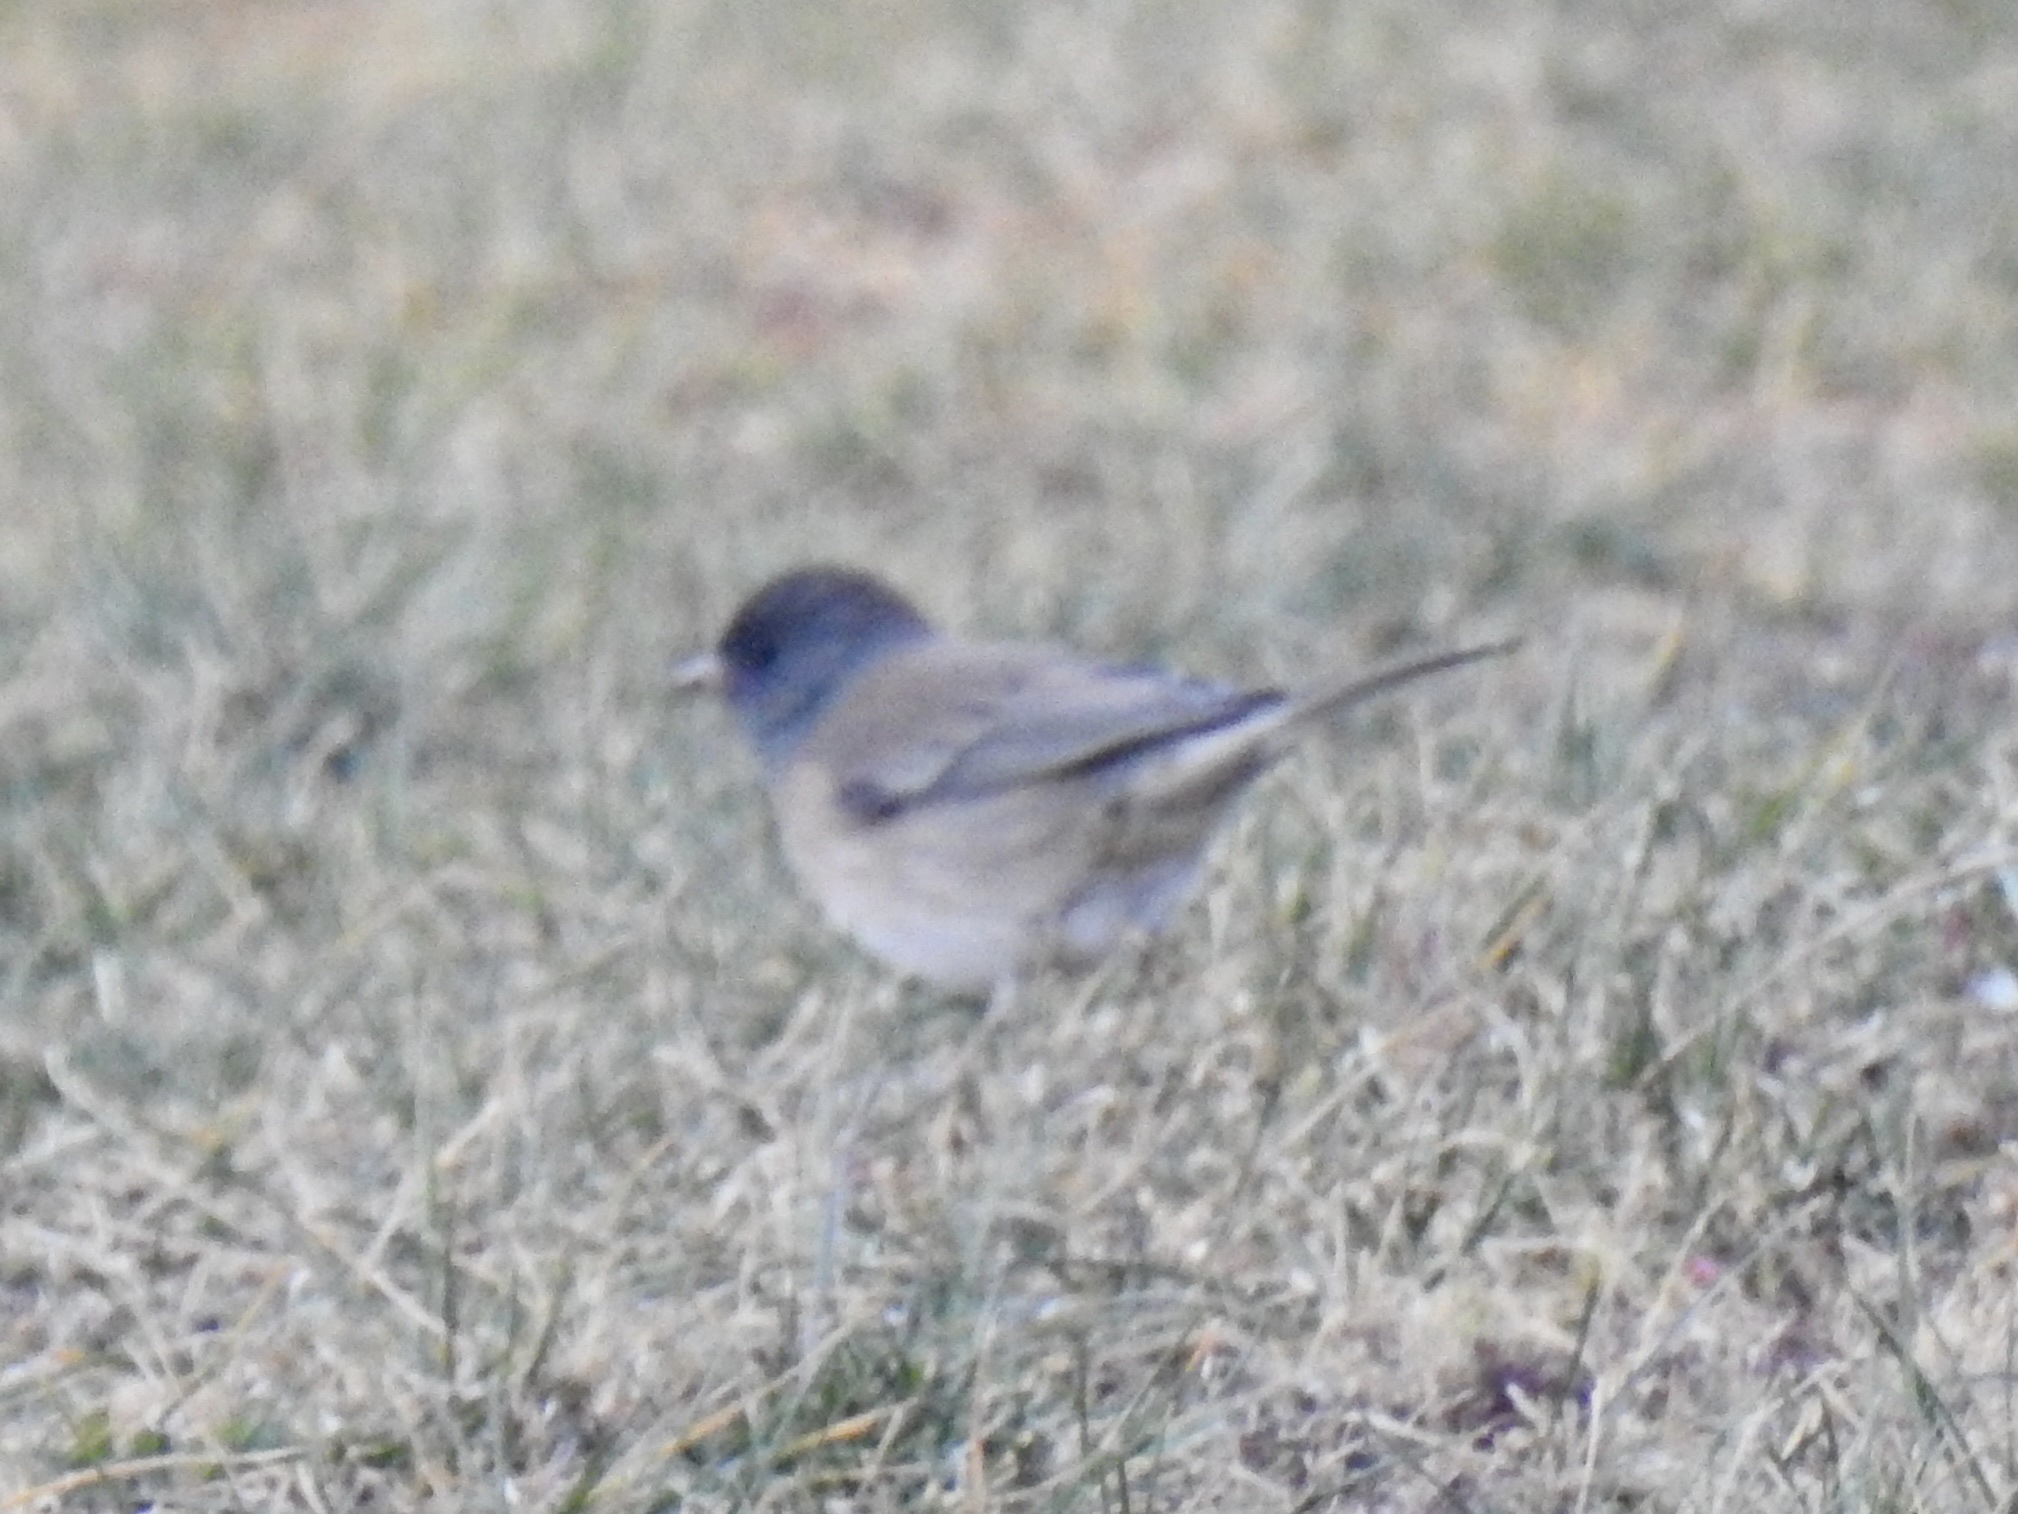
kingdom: Animalia
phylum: Chordata
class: Aves
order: Passeriformes
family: Passerellidae
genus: Junco
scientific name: Junco hyemalis
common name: Dark-eyed junco
